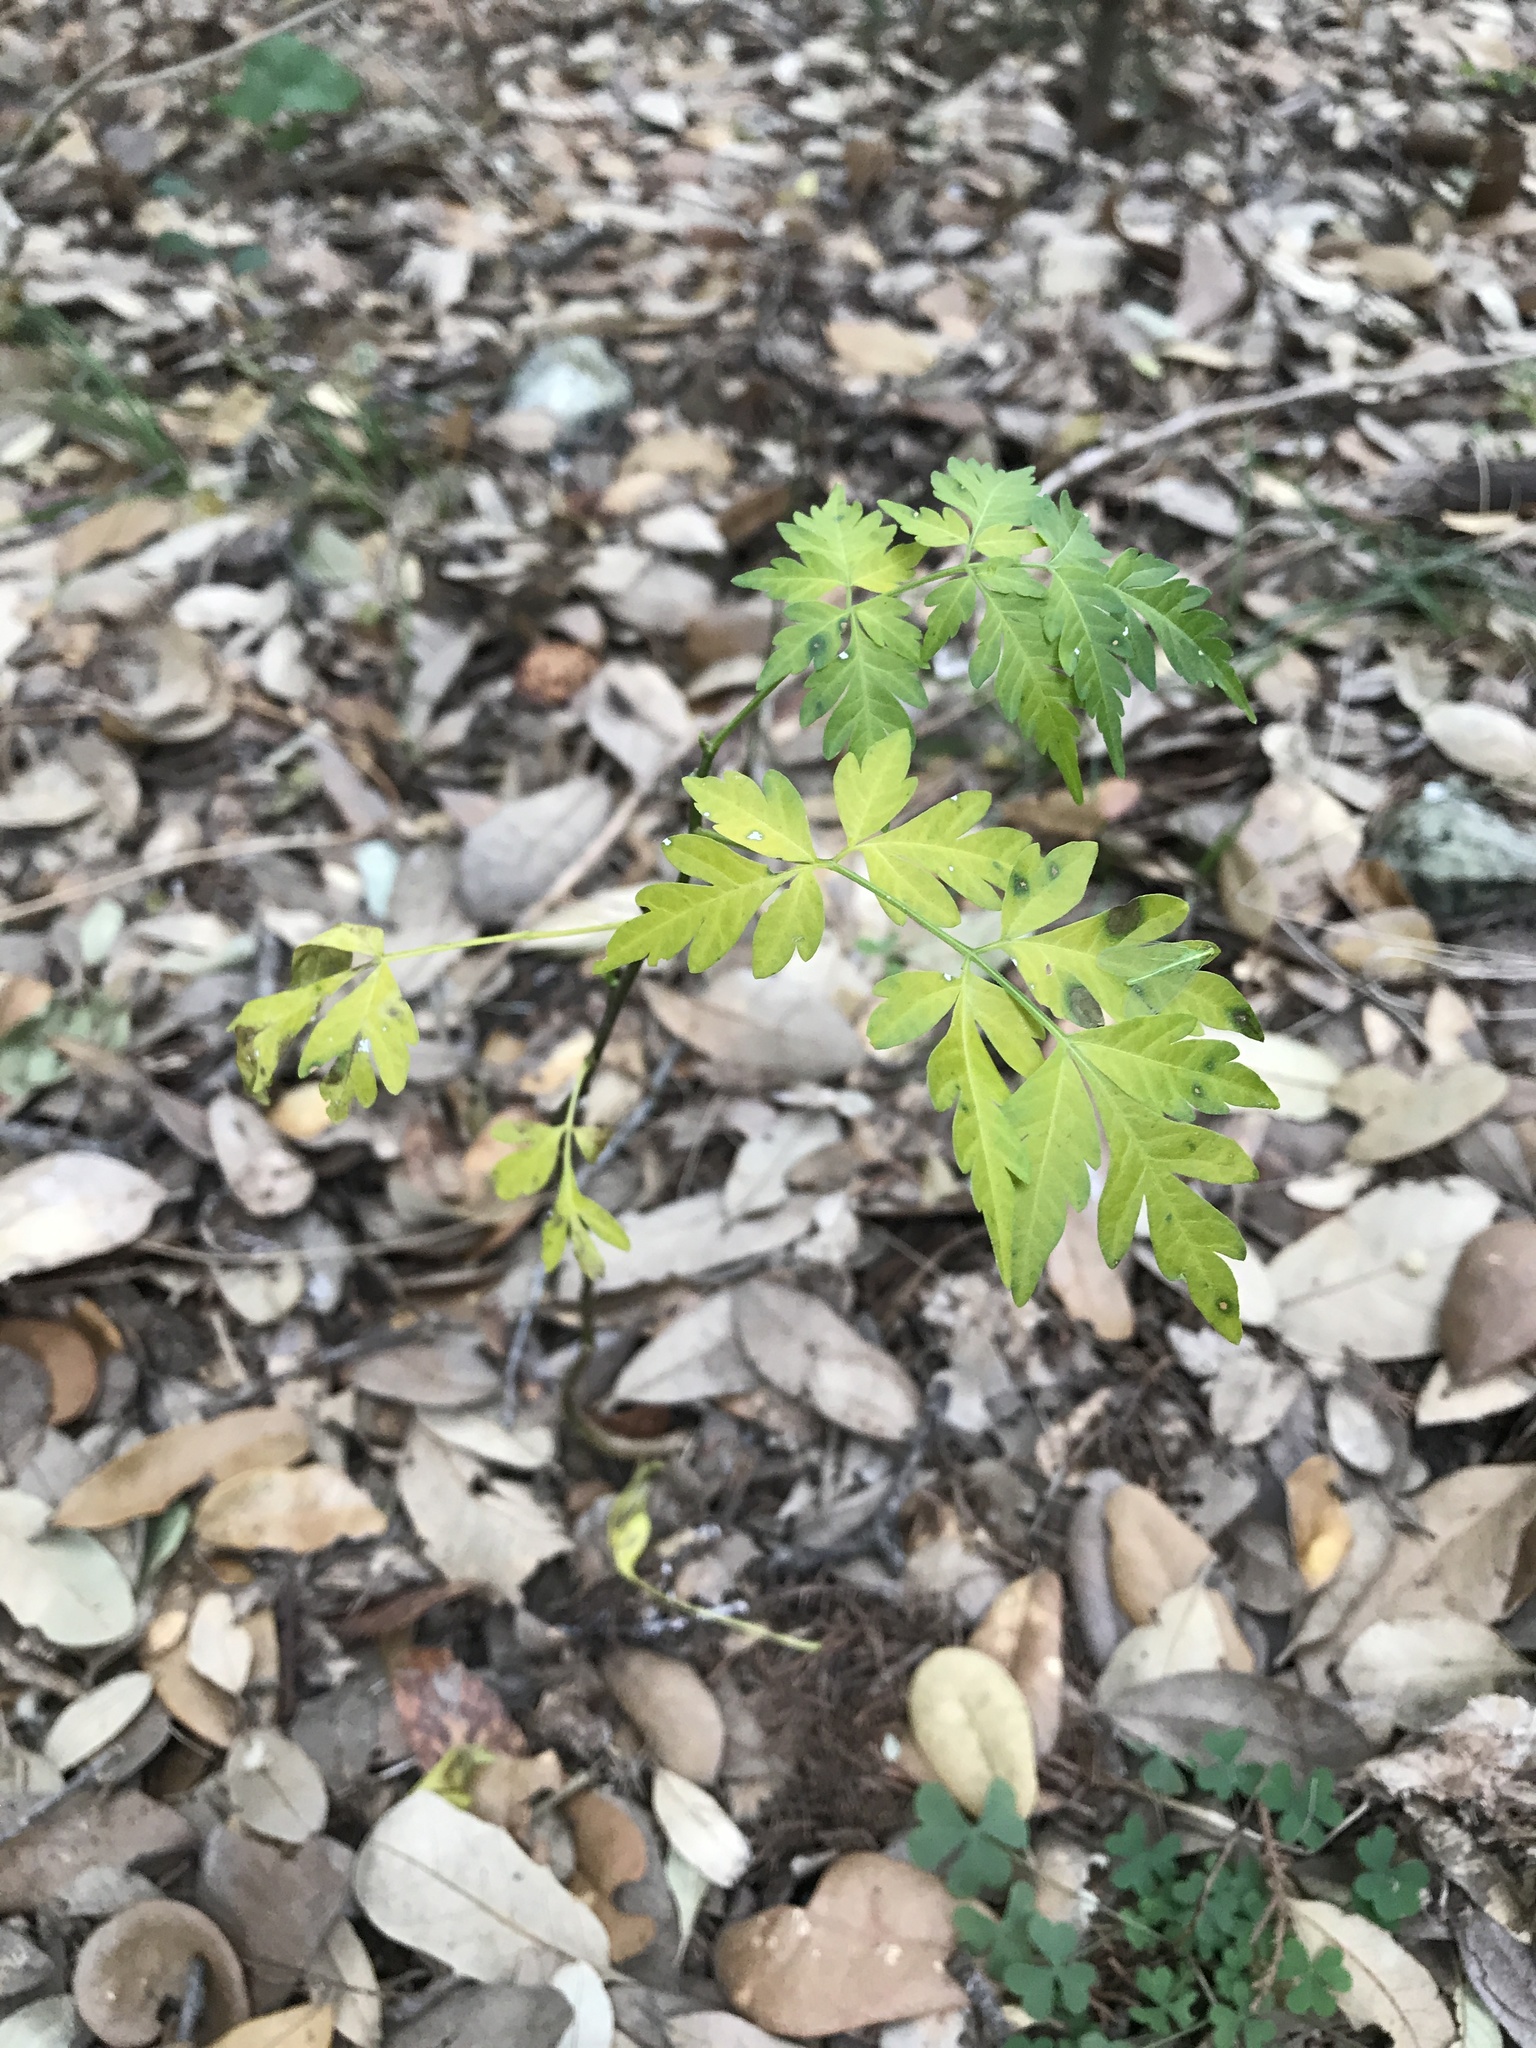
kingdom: Plantae
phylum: Tracheophyta
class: Magnoliopsida
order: Sapindales
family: Meliaceae
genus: Melia
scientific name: Melia azedarach
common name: Chinaberrytree
